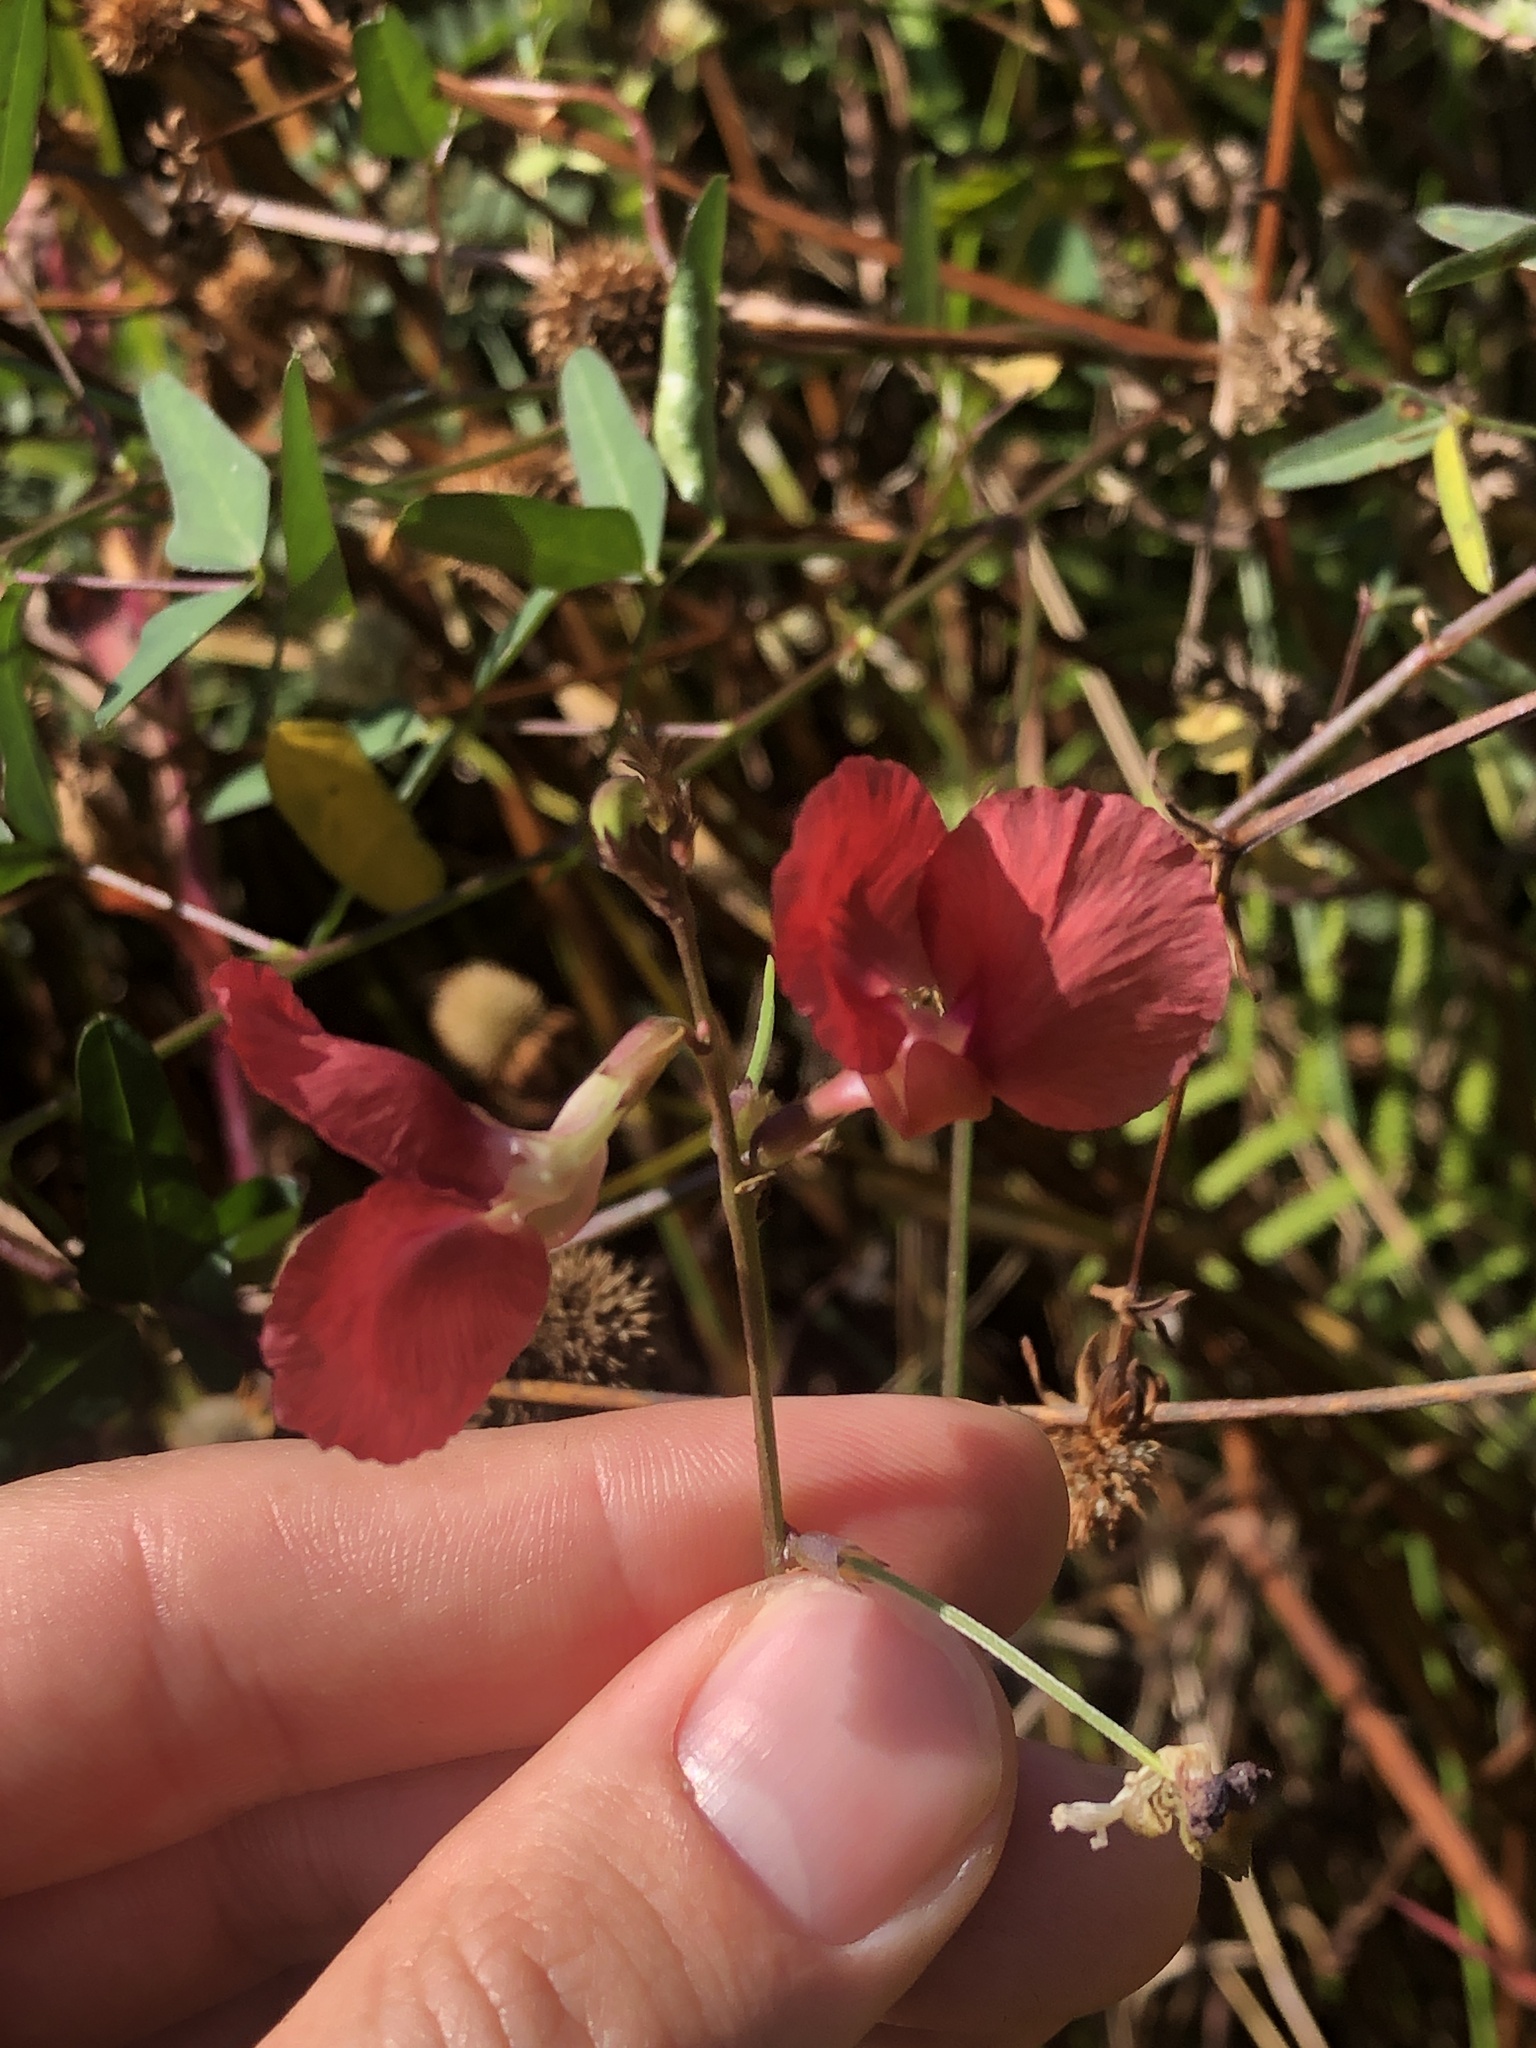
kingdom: Plantae
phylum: Tracheophyta
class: Magnoliopsida
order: Fabales
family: Fabaceae
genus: Macroptilium
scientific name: Macroptilium lathyroides
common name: Wild bushbean
